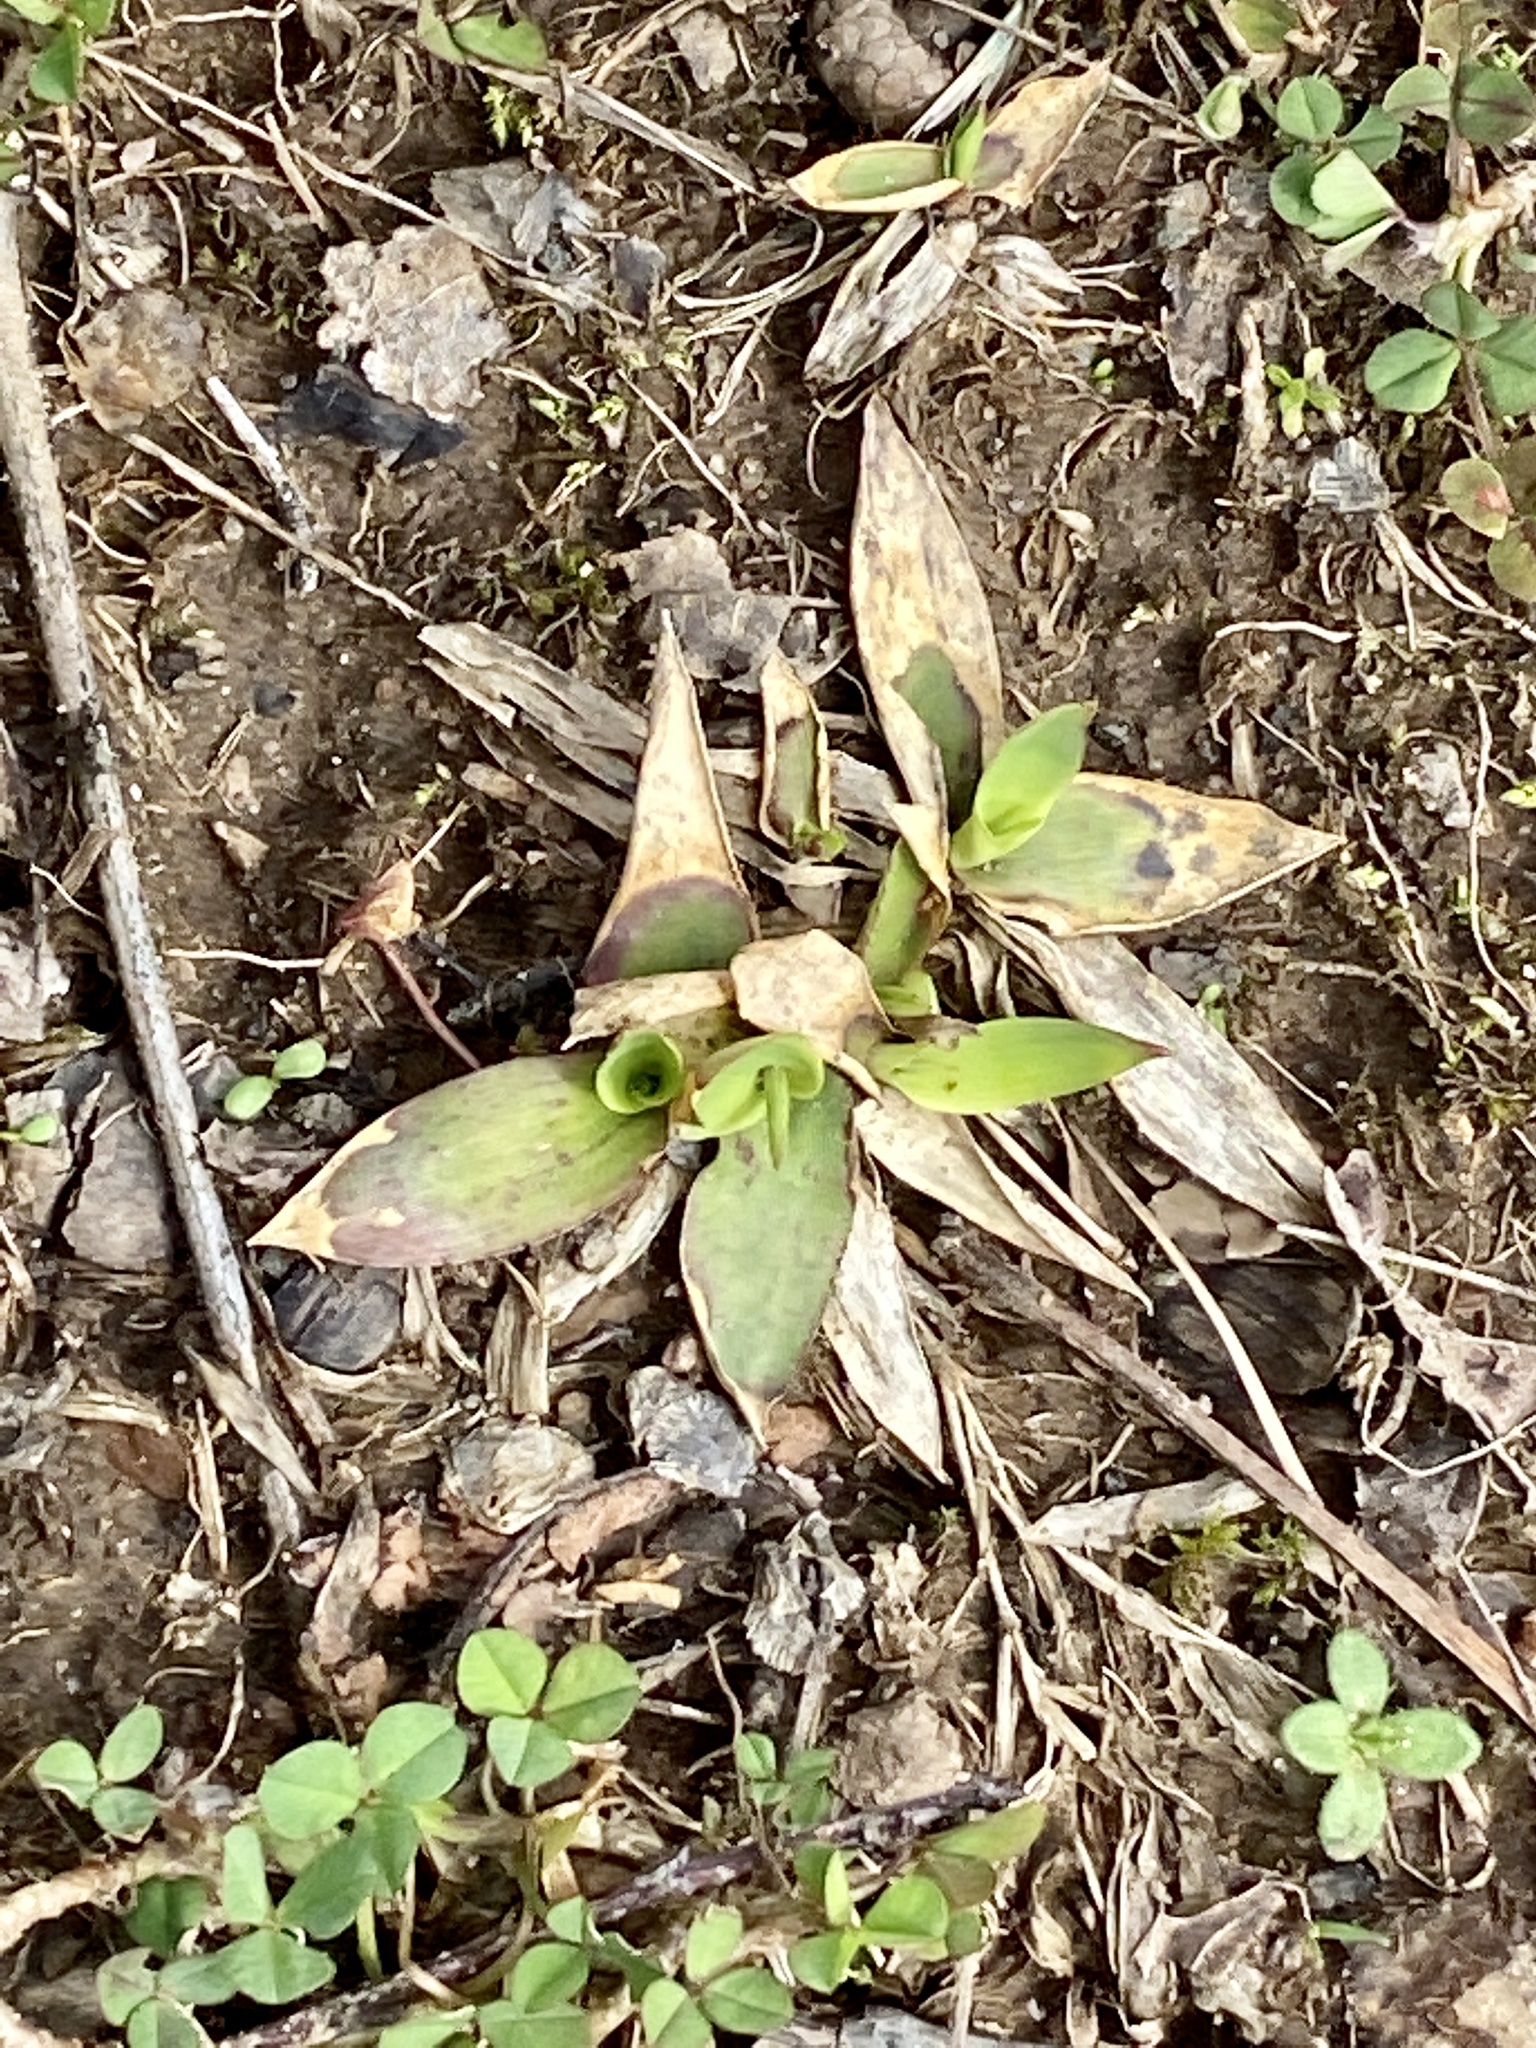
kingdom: Plantae
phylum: Tracheophyta
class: Liliopsida
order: Poales
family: Poaceae
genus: Dichanthelium
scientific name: Dichanthelium clandestinum
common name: Deer-tongue grass
